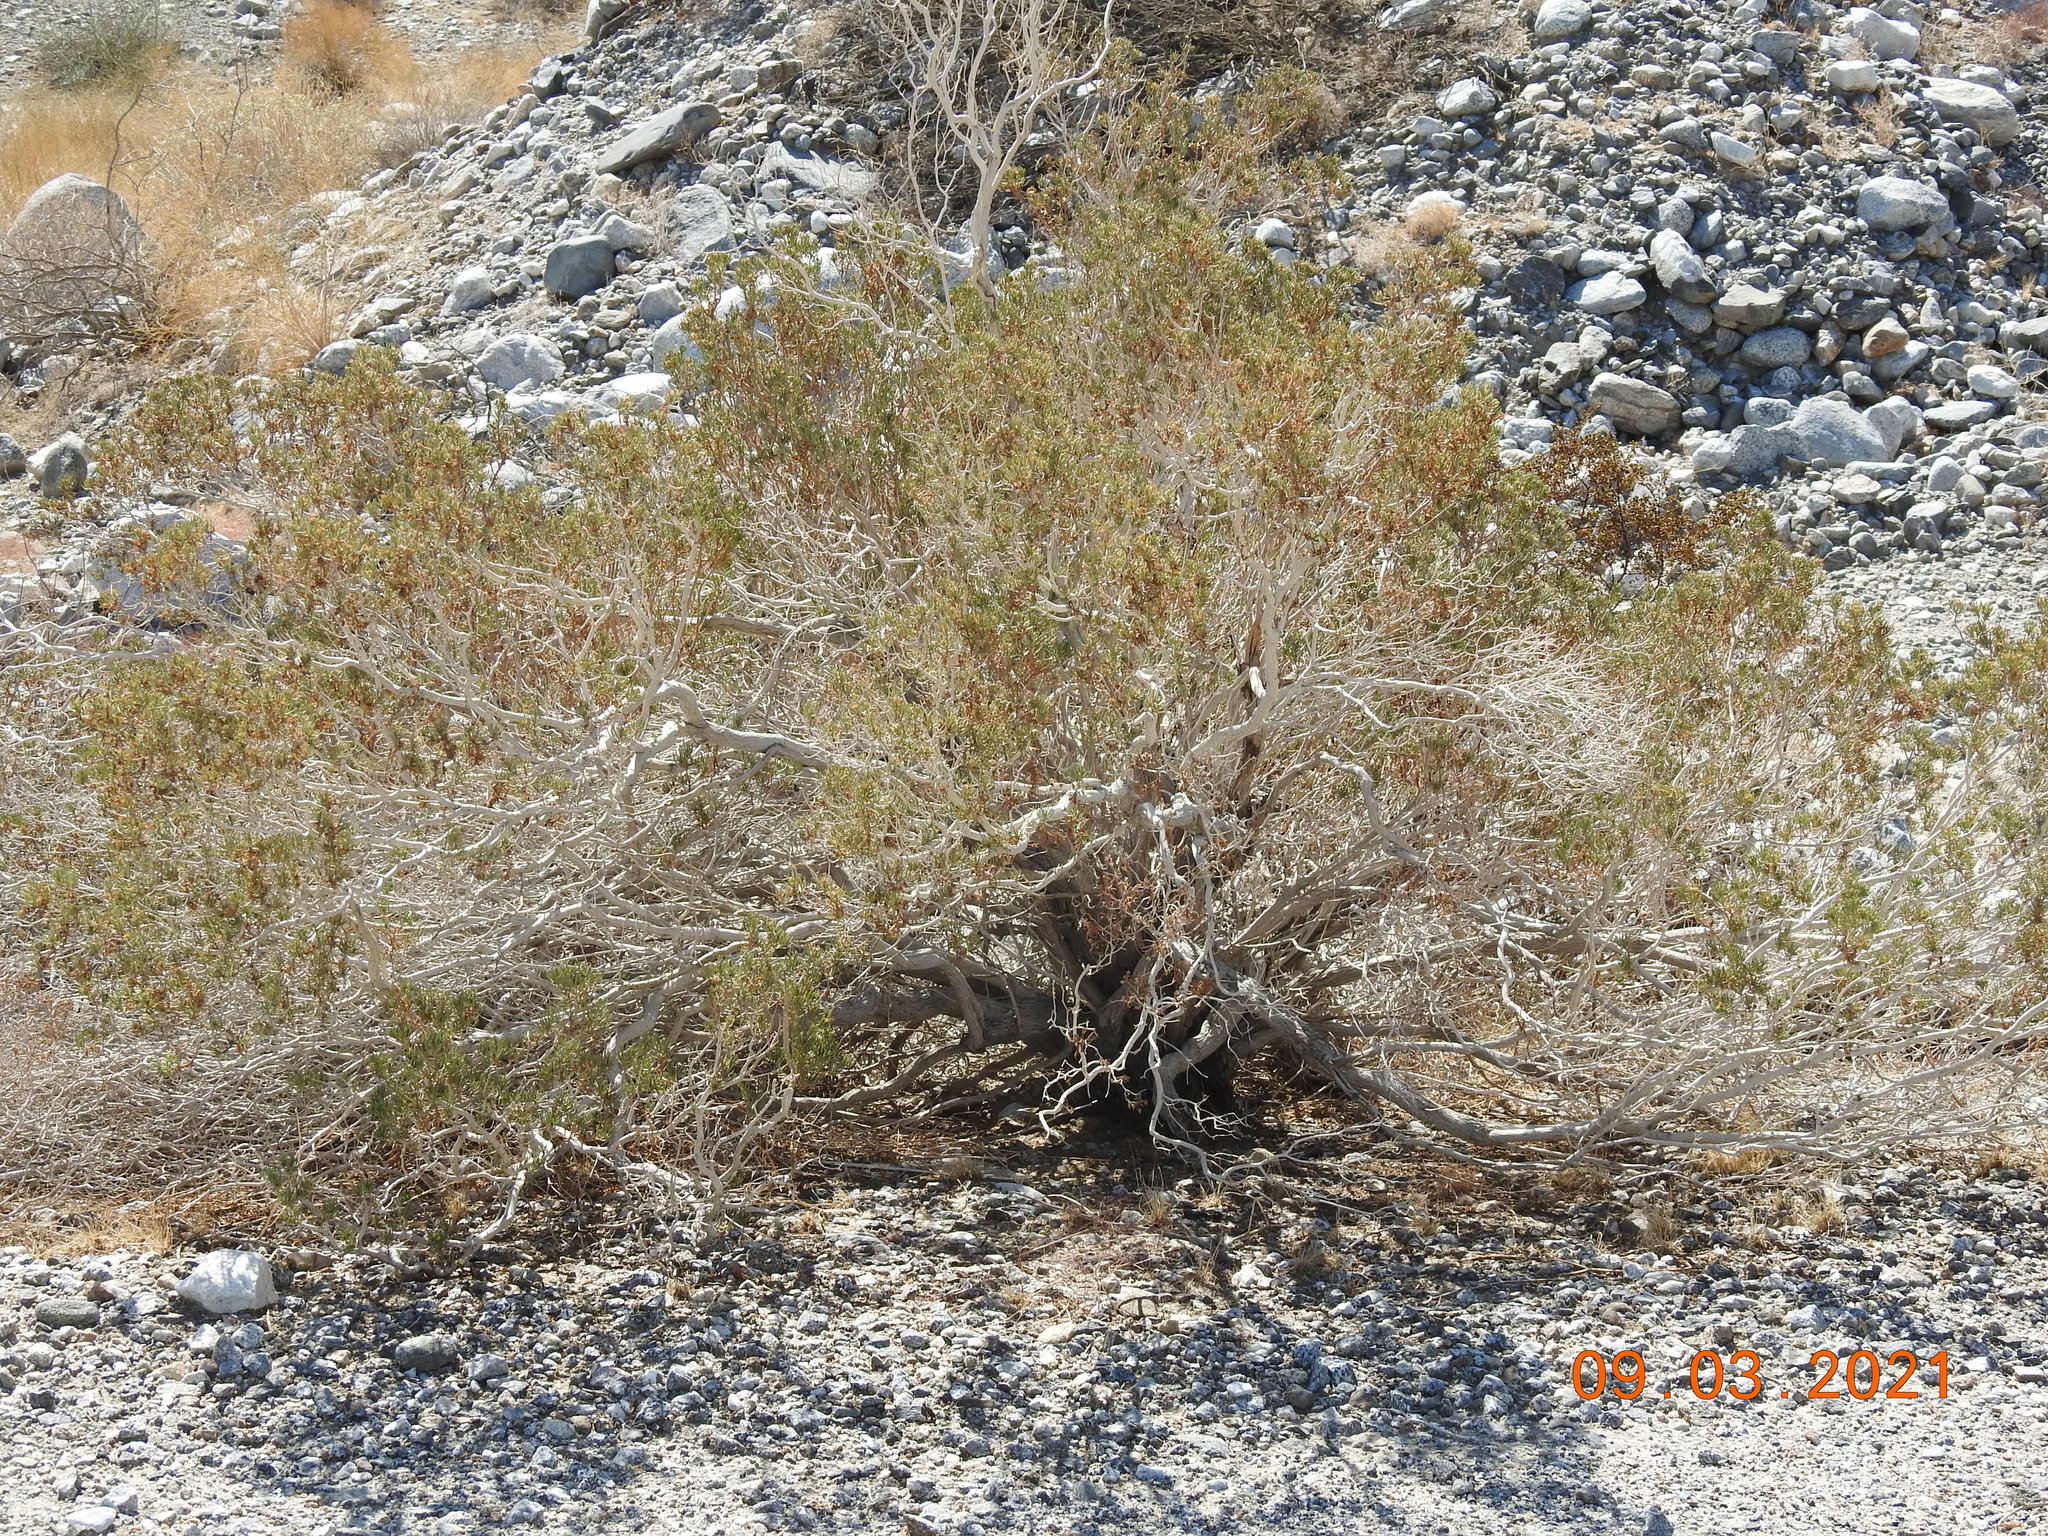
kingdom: Plantae
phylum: Tracheophyta
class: Magnoliopsida
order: Asterales
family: Asteraceae
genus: Peucephyllum
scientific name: Peucephyllum schottii
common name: Pygmy-cedar
